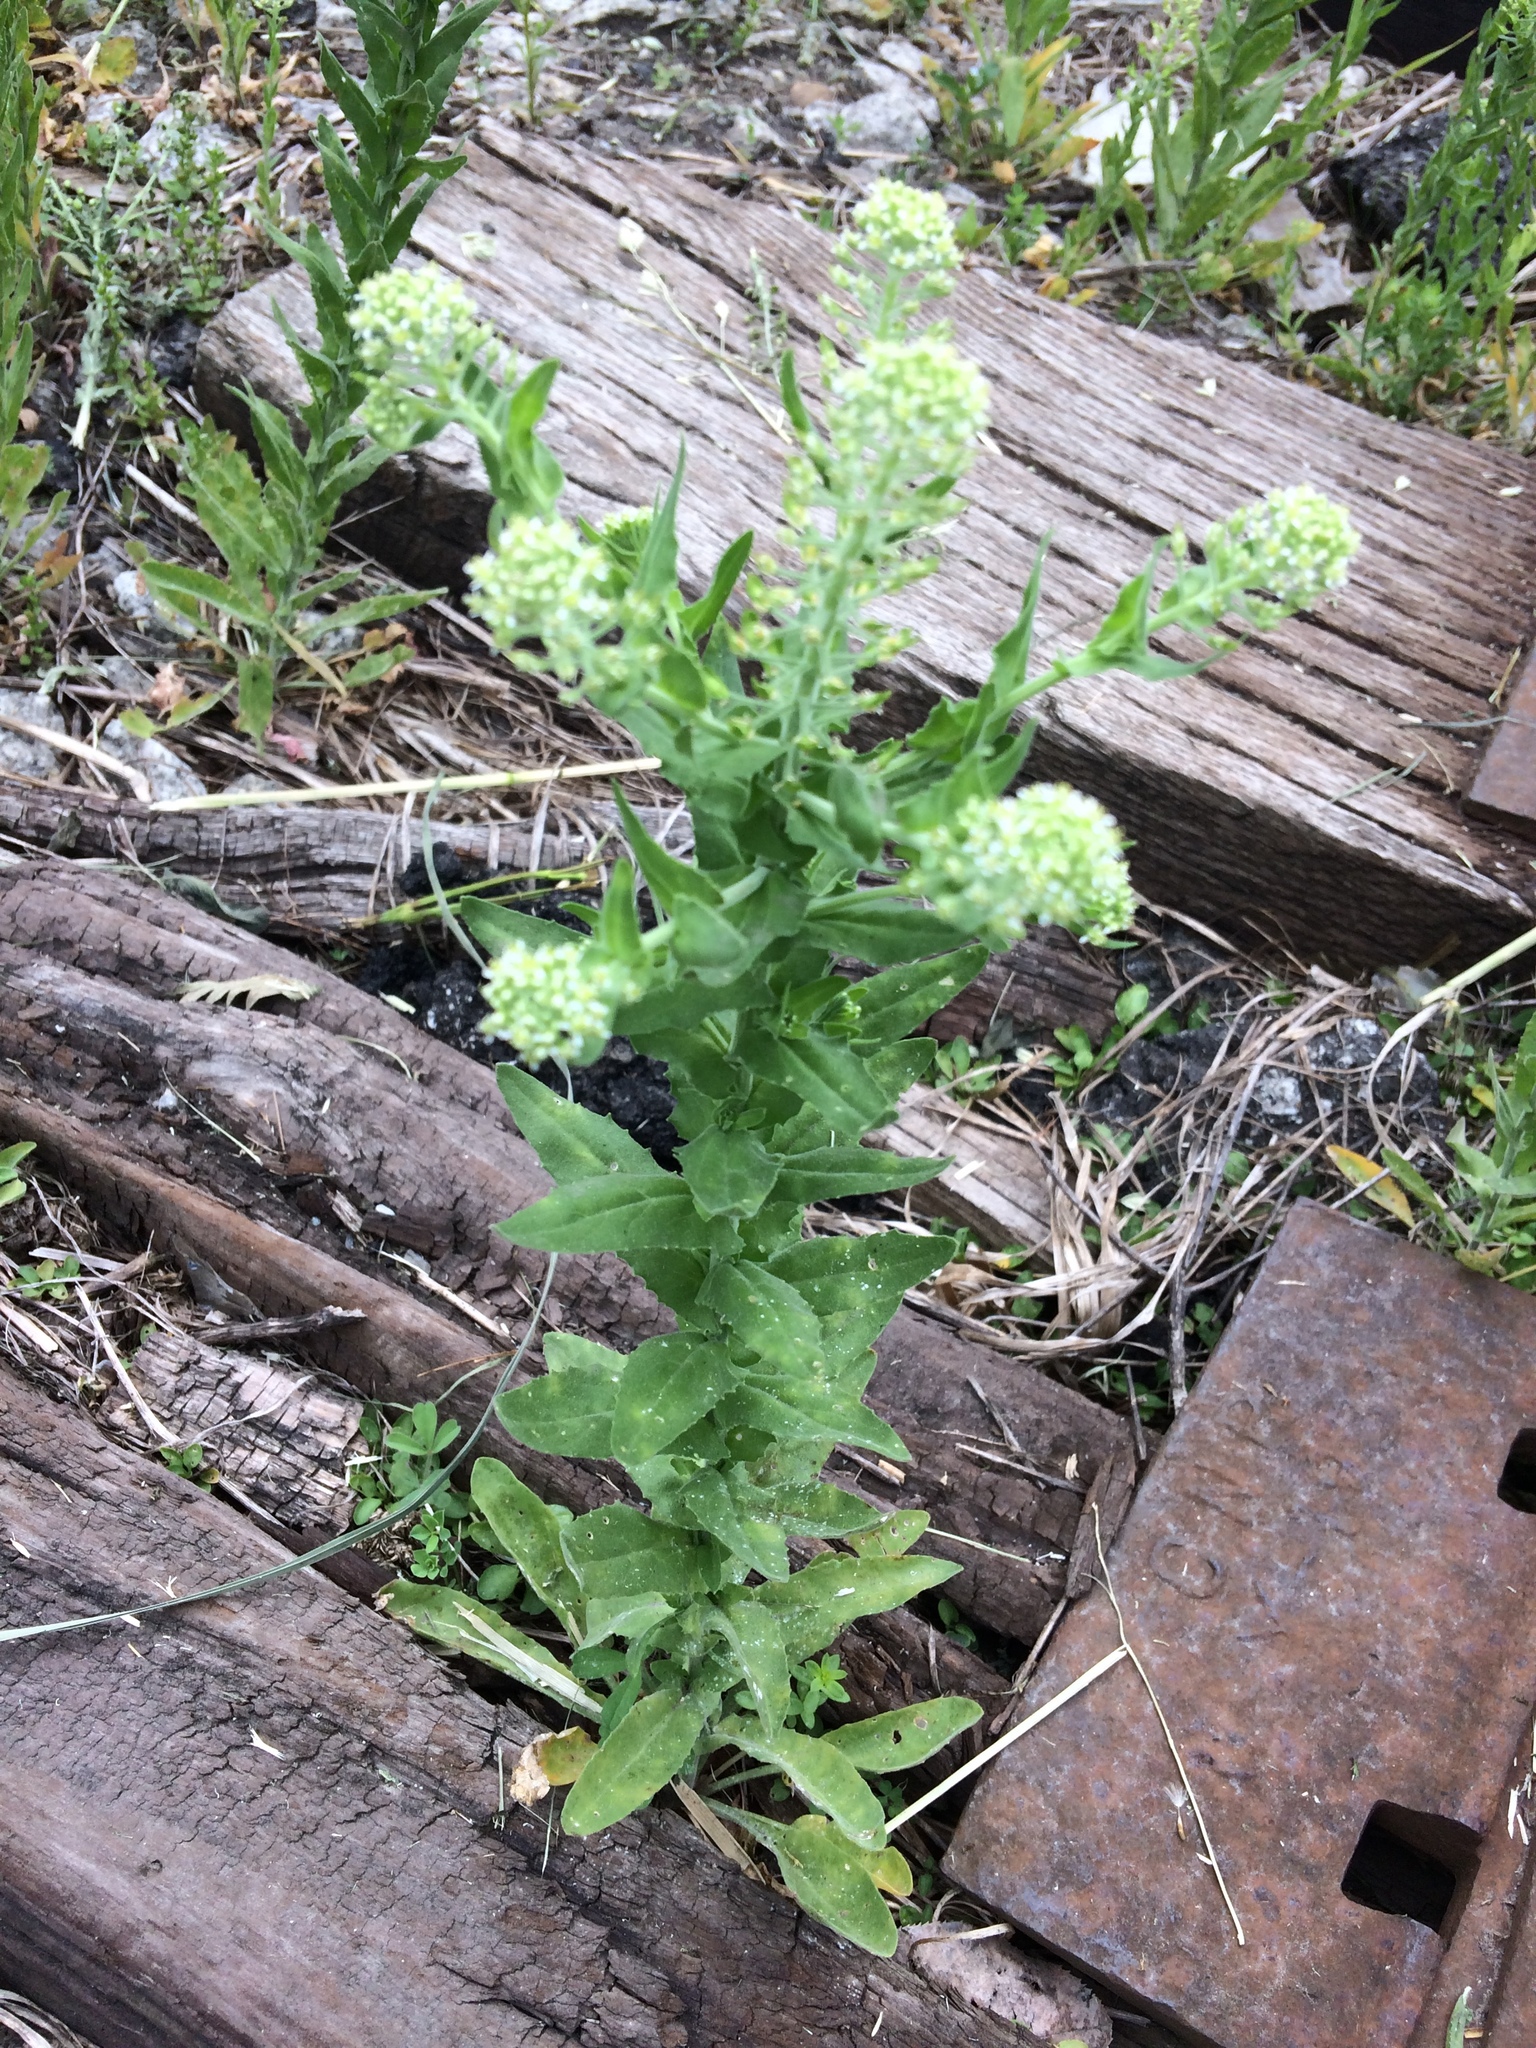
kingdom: Plantae
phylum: Tracheophyta
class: Magnoliopsida
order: Brassicales
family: Brassicaceae
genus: Lepidium
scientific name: Lepidium campestre
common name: Field pepperwort
